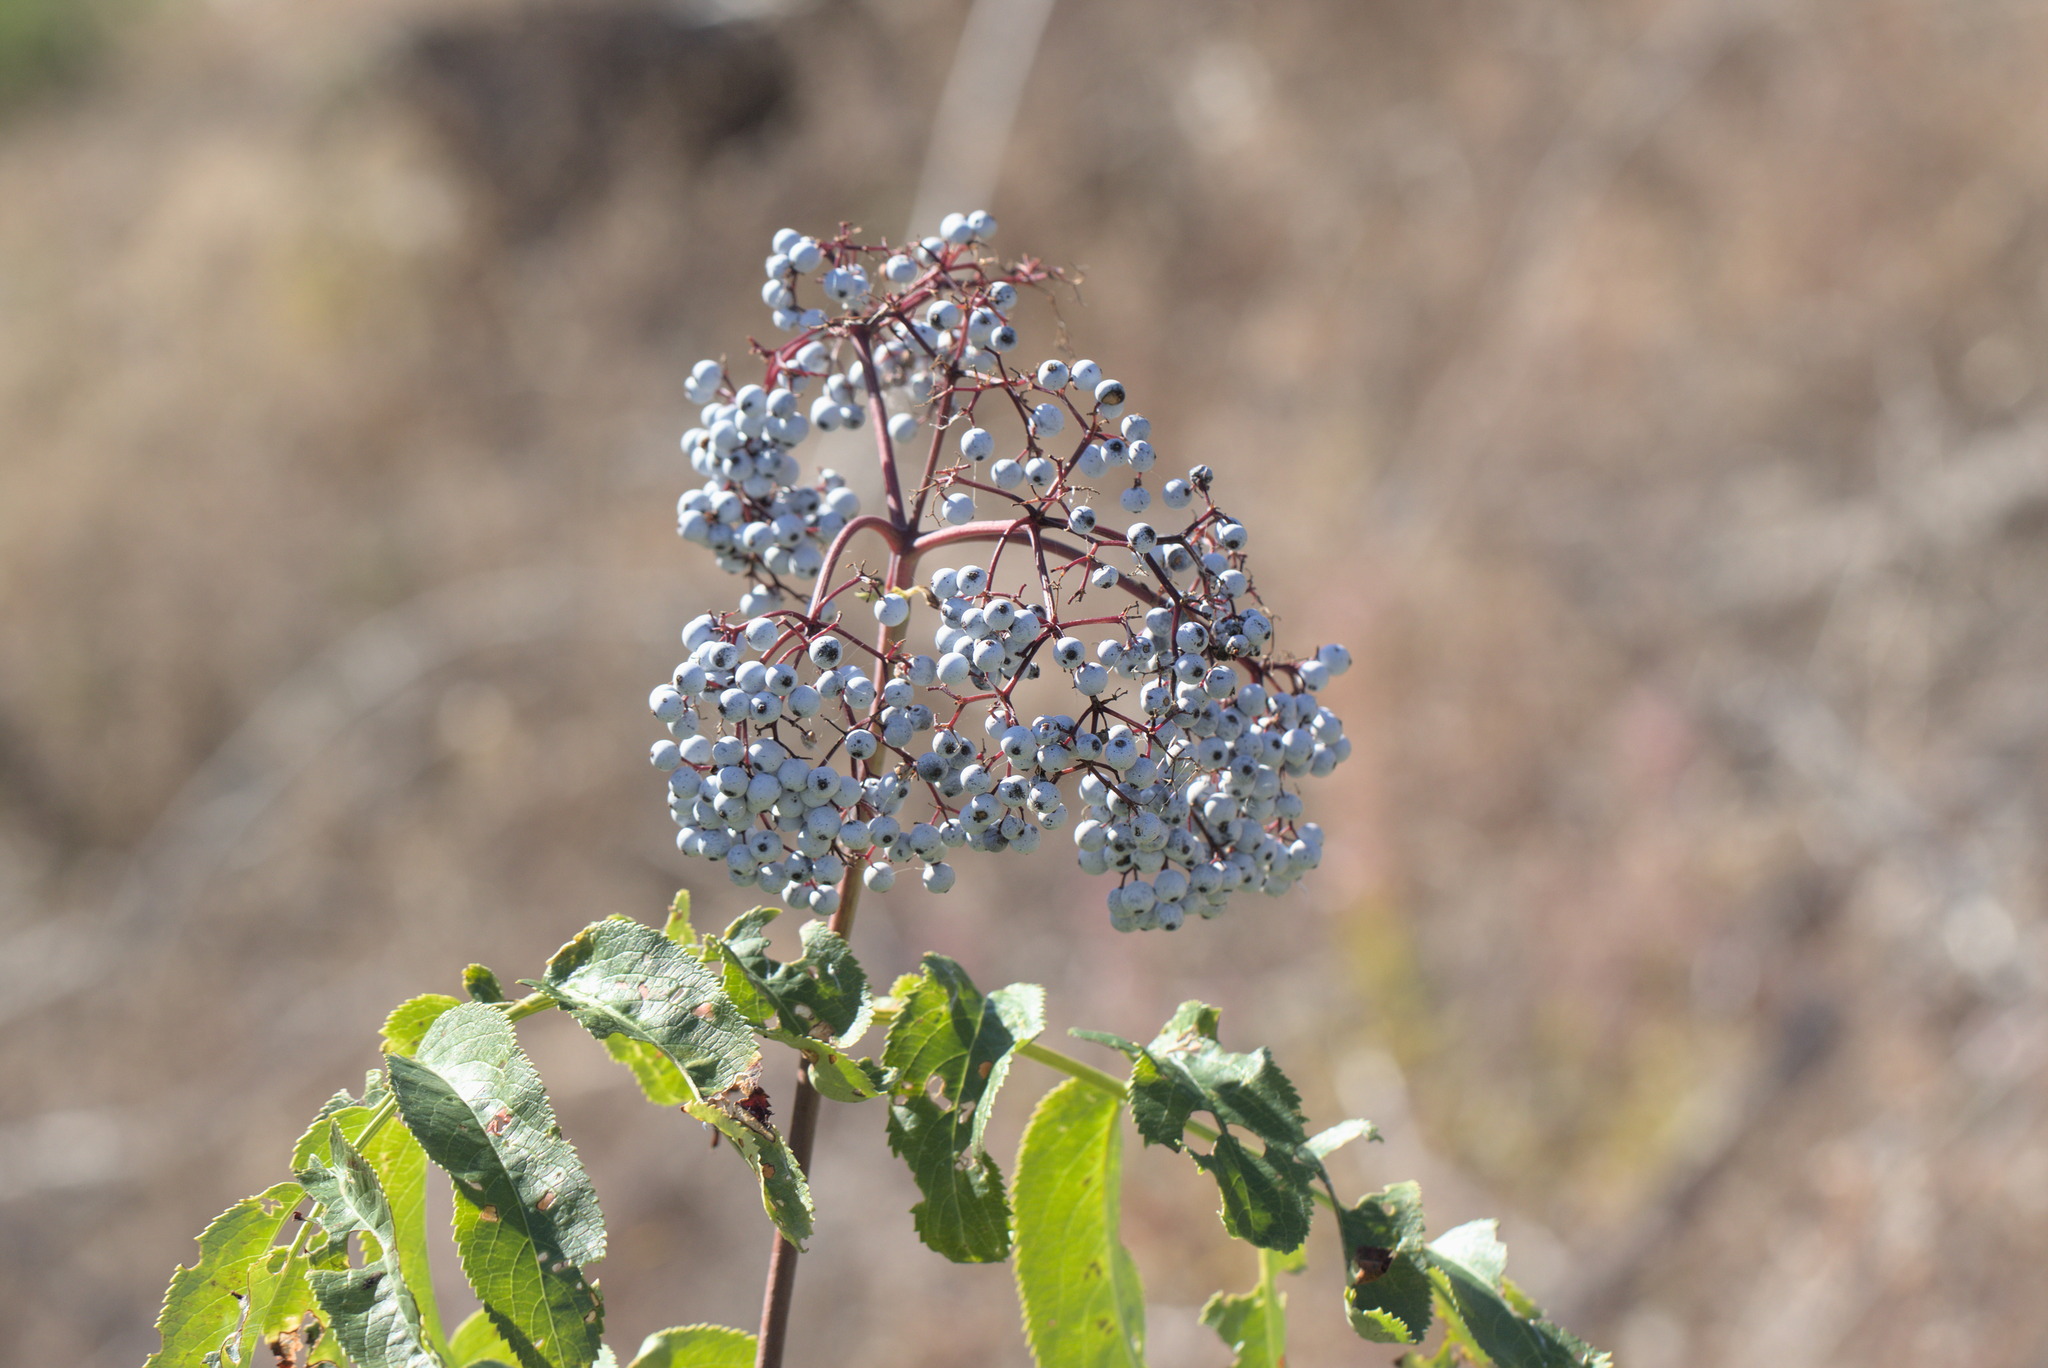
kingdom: Plantae
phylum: Tracheophyta
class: Magnoliopsida
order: Dipsacales
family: Viburnaceae
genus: Sambucus
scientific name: Sambucus cerulea
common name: Blue elder
